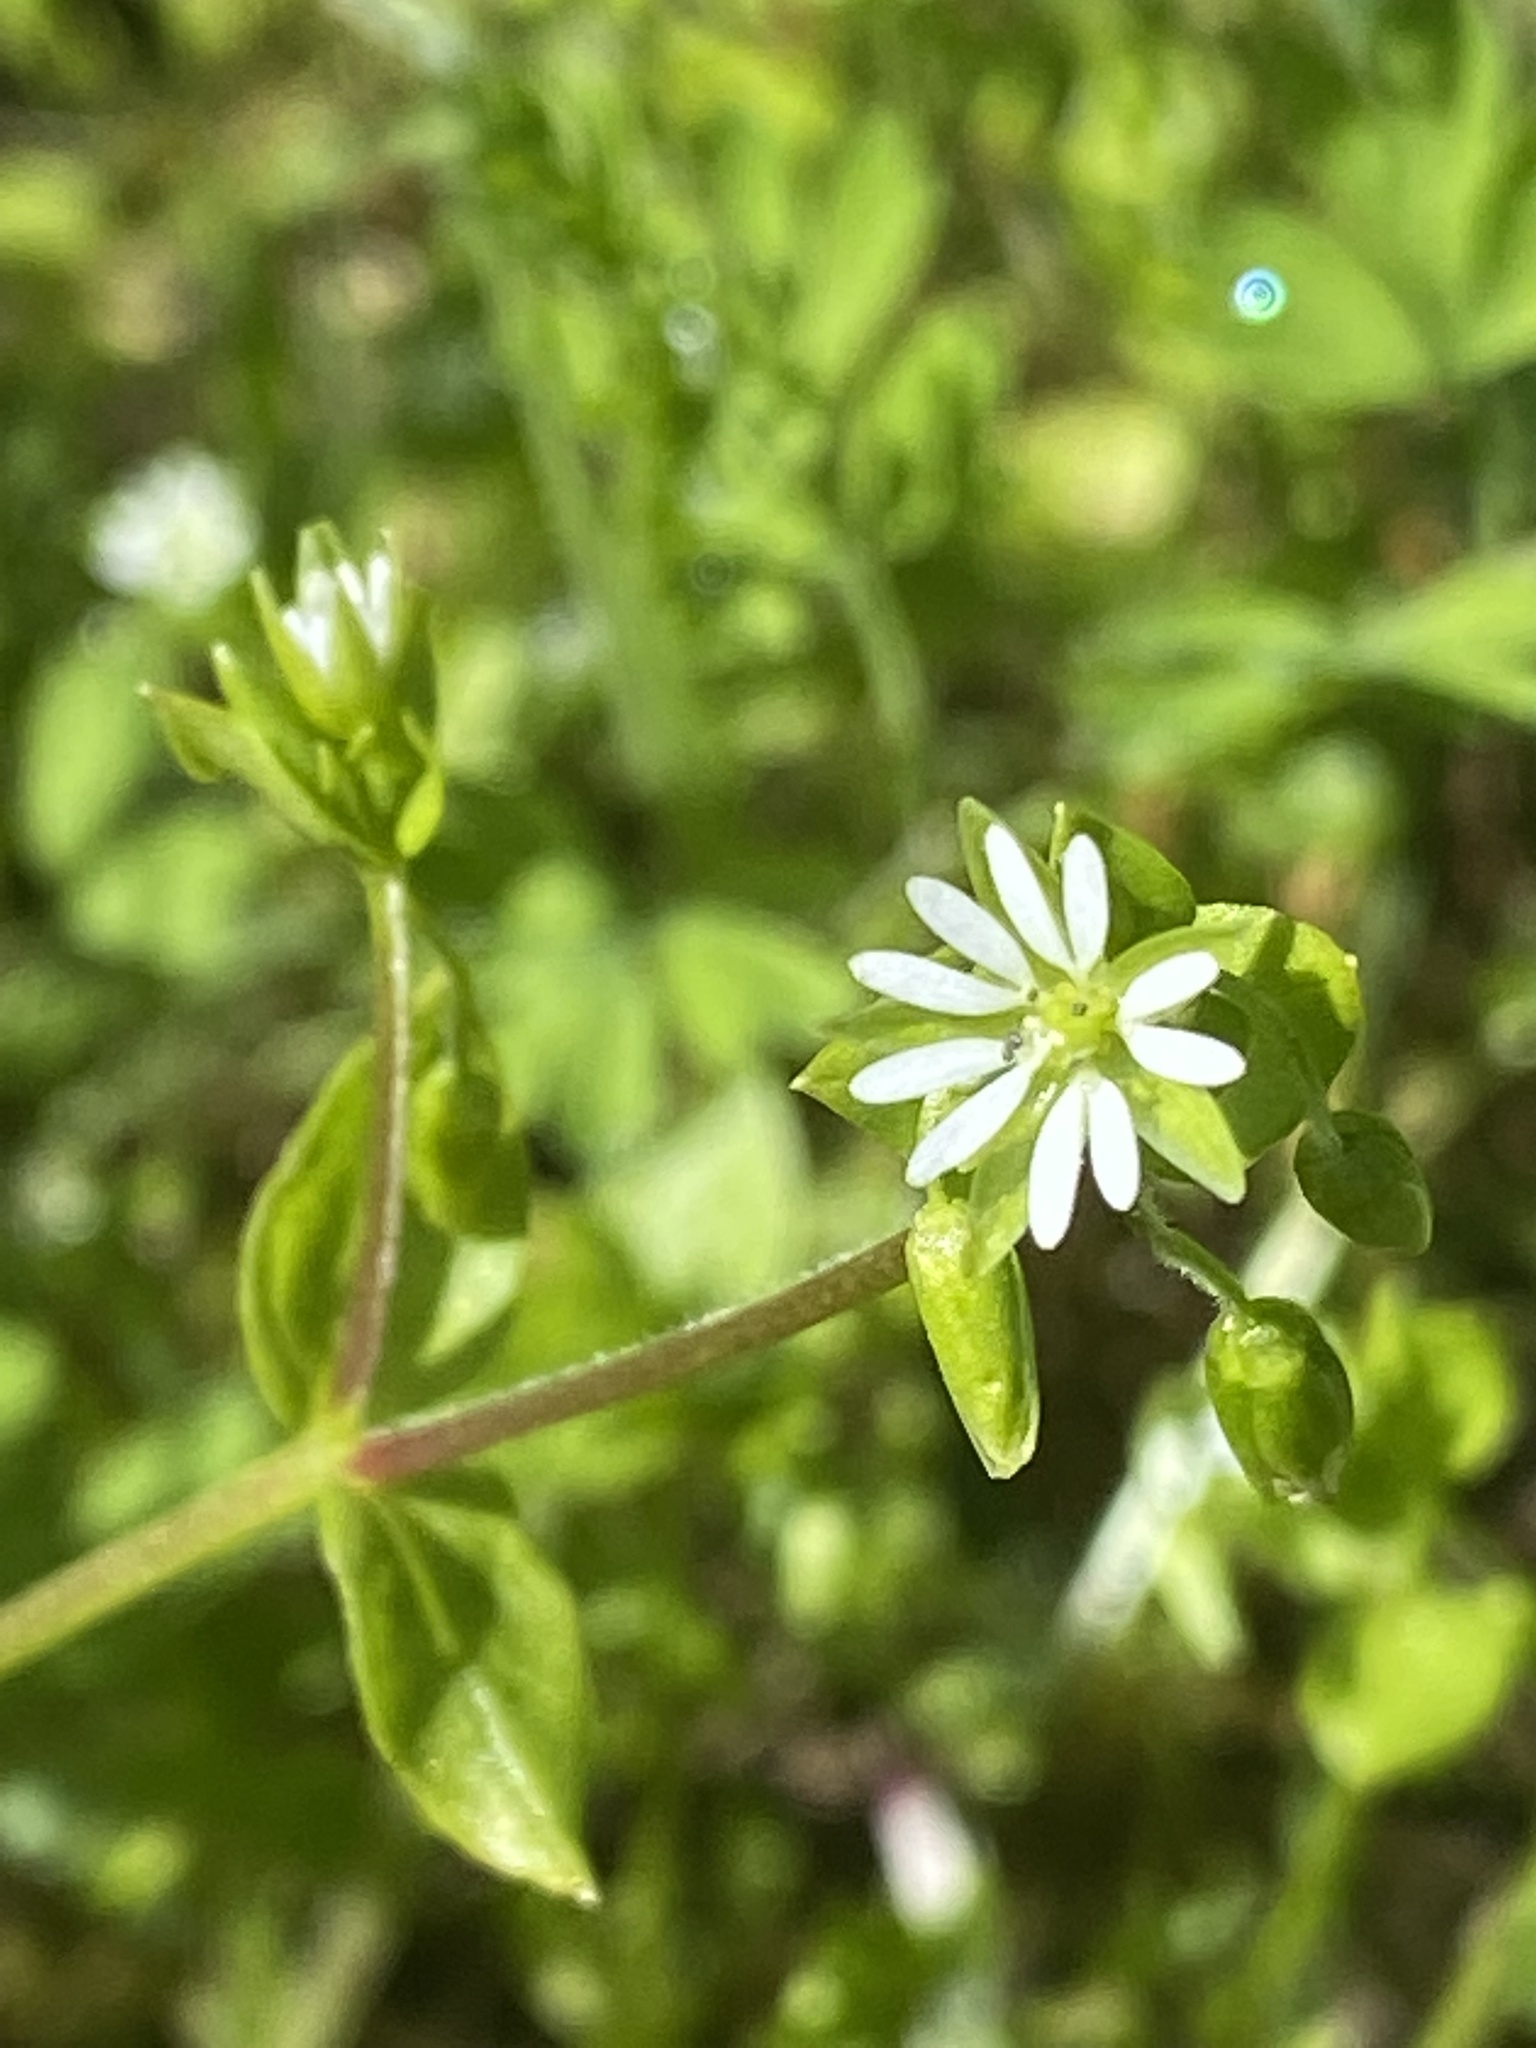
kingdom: Plantae
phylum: Tracheophyta
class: Magnoliopsida
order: Caryophyllales
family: Caryophyllaceae
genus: Stellaria
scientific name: Stellaria media
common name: Common chickweed
